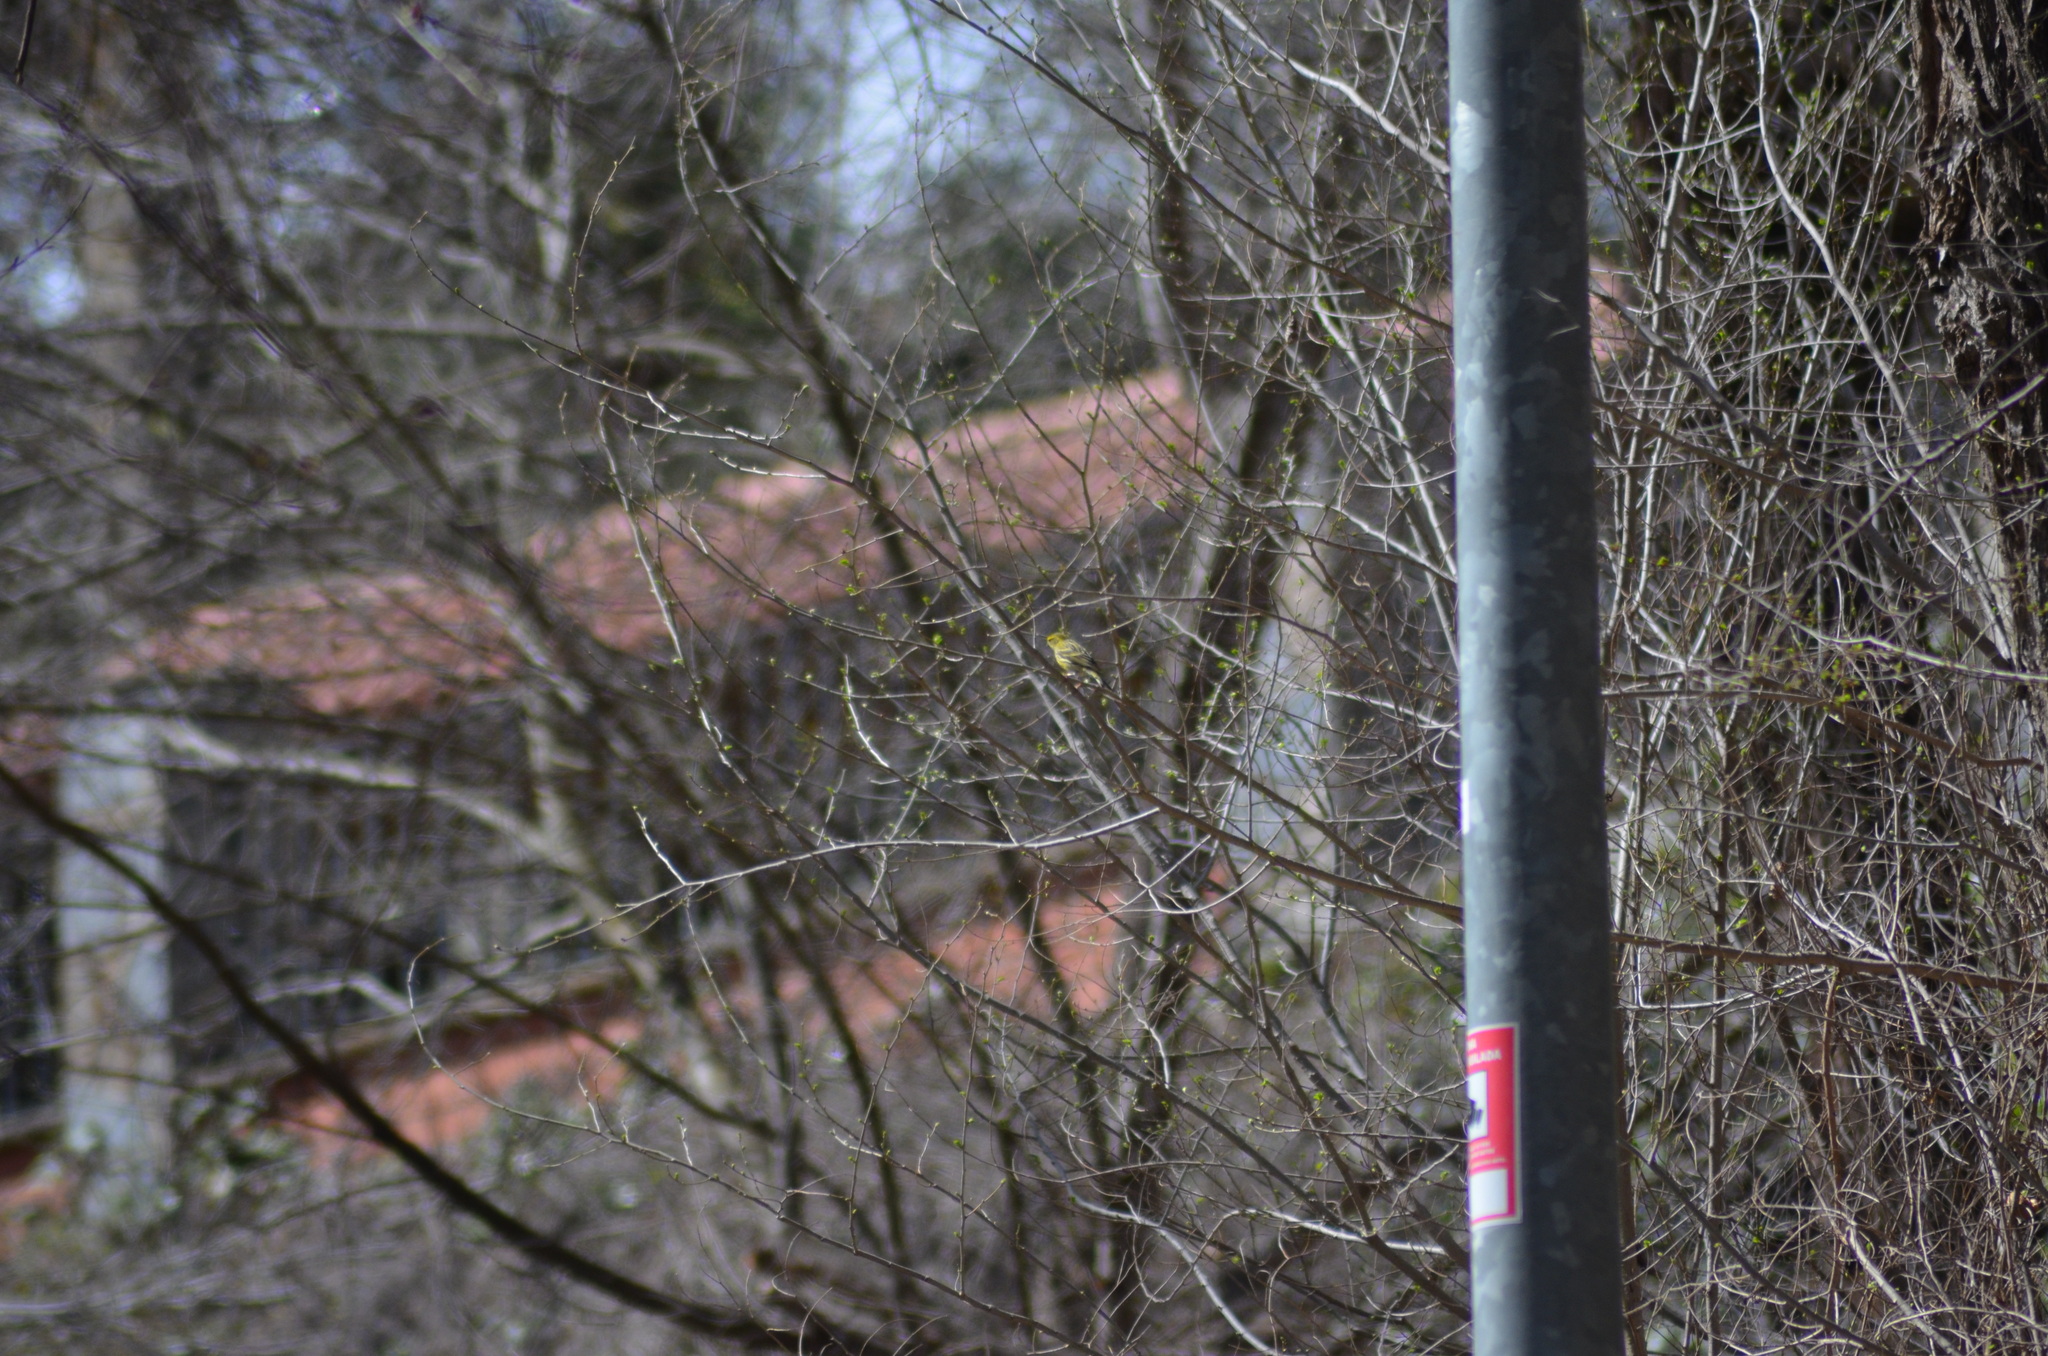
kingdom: Animalia
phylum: Chordata
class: Aves
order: Passeriformes
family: Fringillidae
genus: Serinus
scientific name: Serinus serinus
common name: European serin
